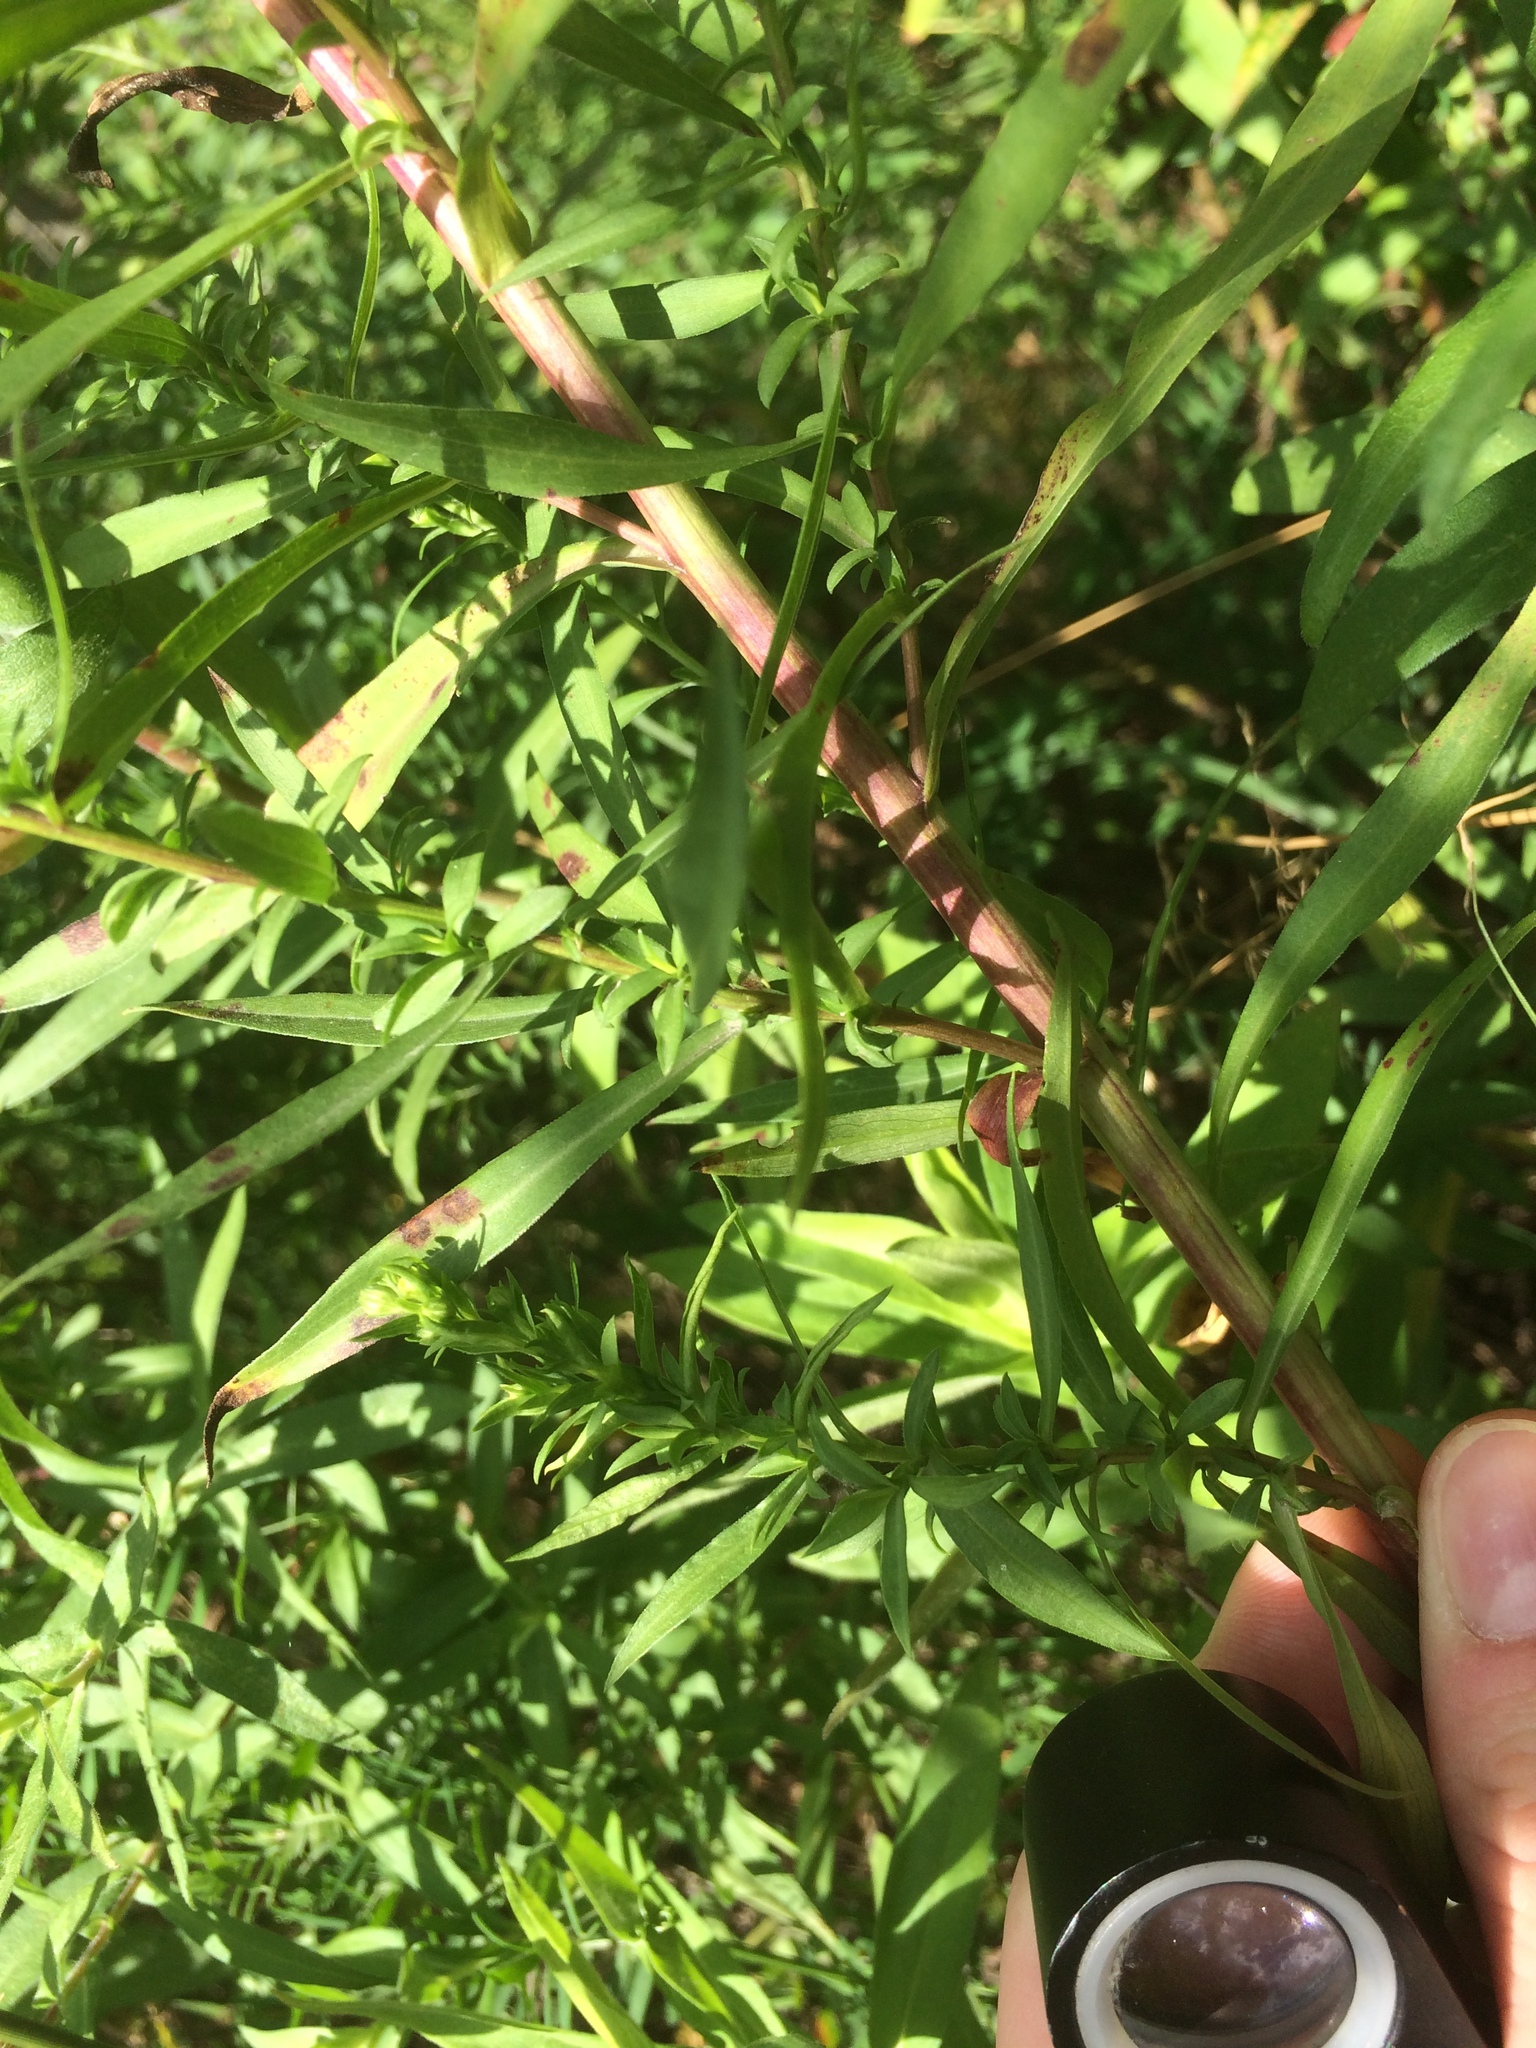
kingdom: Plantae
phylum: Tracheophyta
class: Magnoliopsida
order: Asterales
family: Asteraceae
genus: Symphyotrichum
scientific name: Symphyotrichum lanceolatum
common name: Panicled aster
